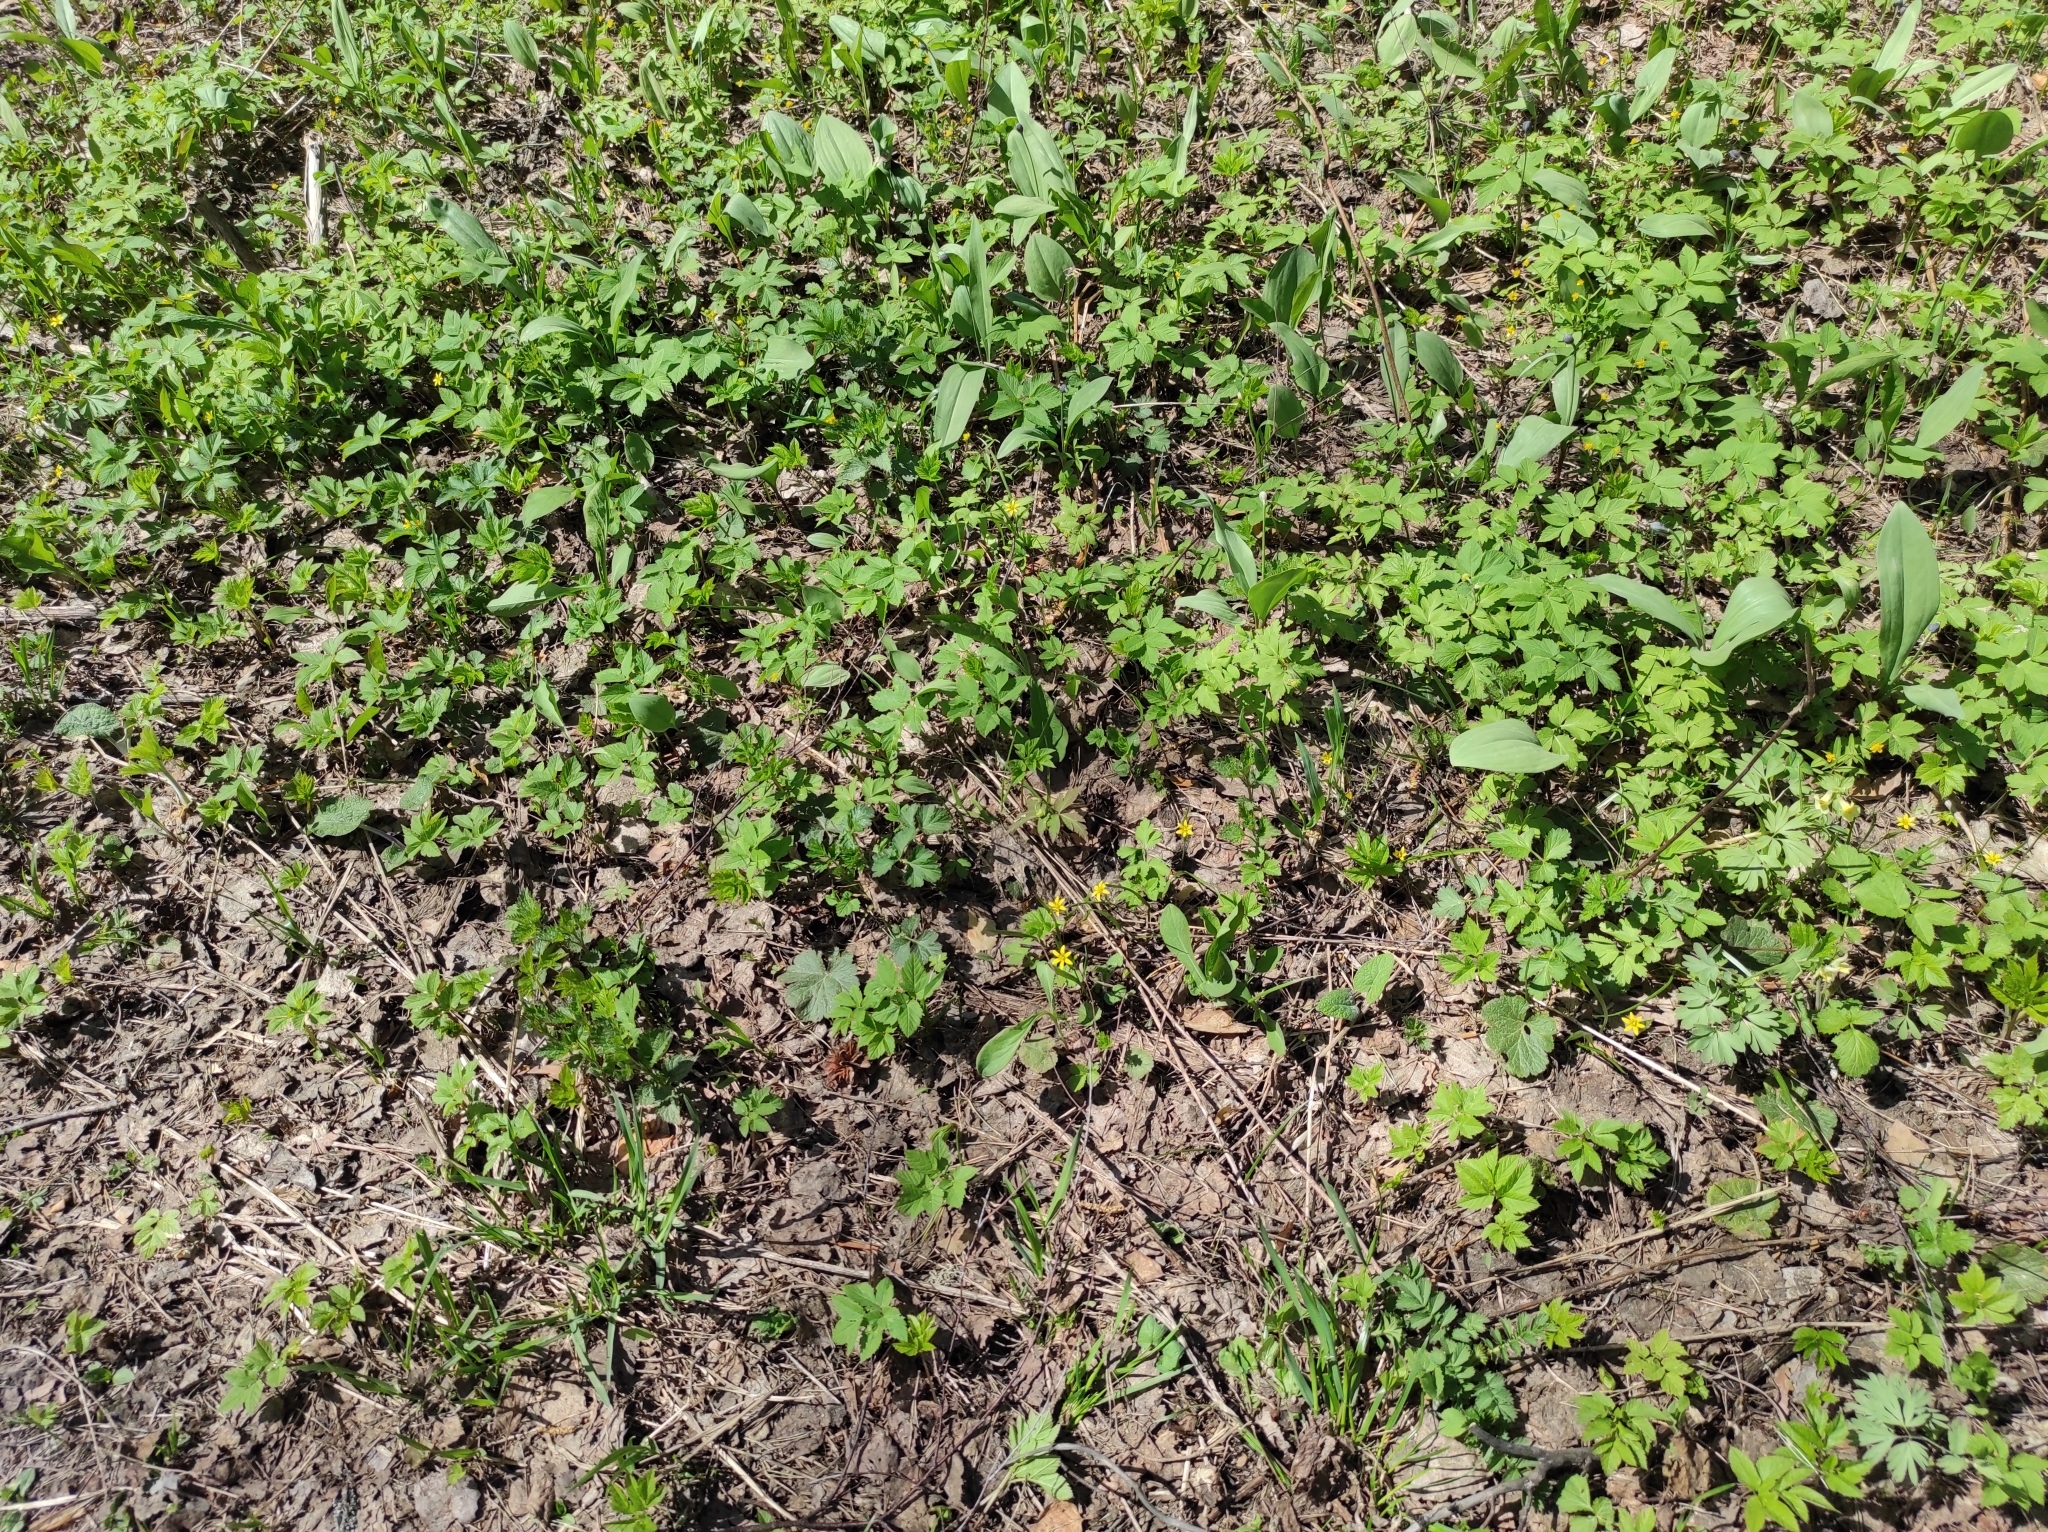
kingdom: Plantae
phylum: Tracheophyta
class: Magnoliopsida
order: Apiales
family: Apiaceae
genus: Aegopodium
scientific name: Aegopodium podagraria
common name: Ground-elder
